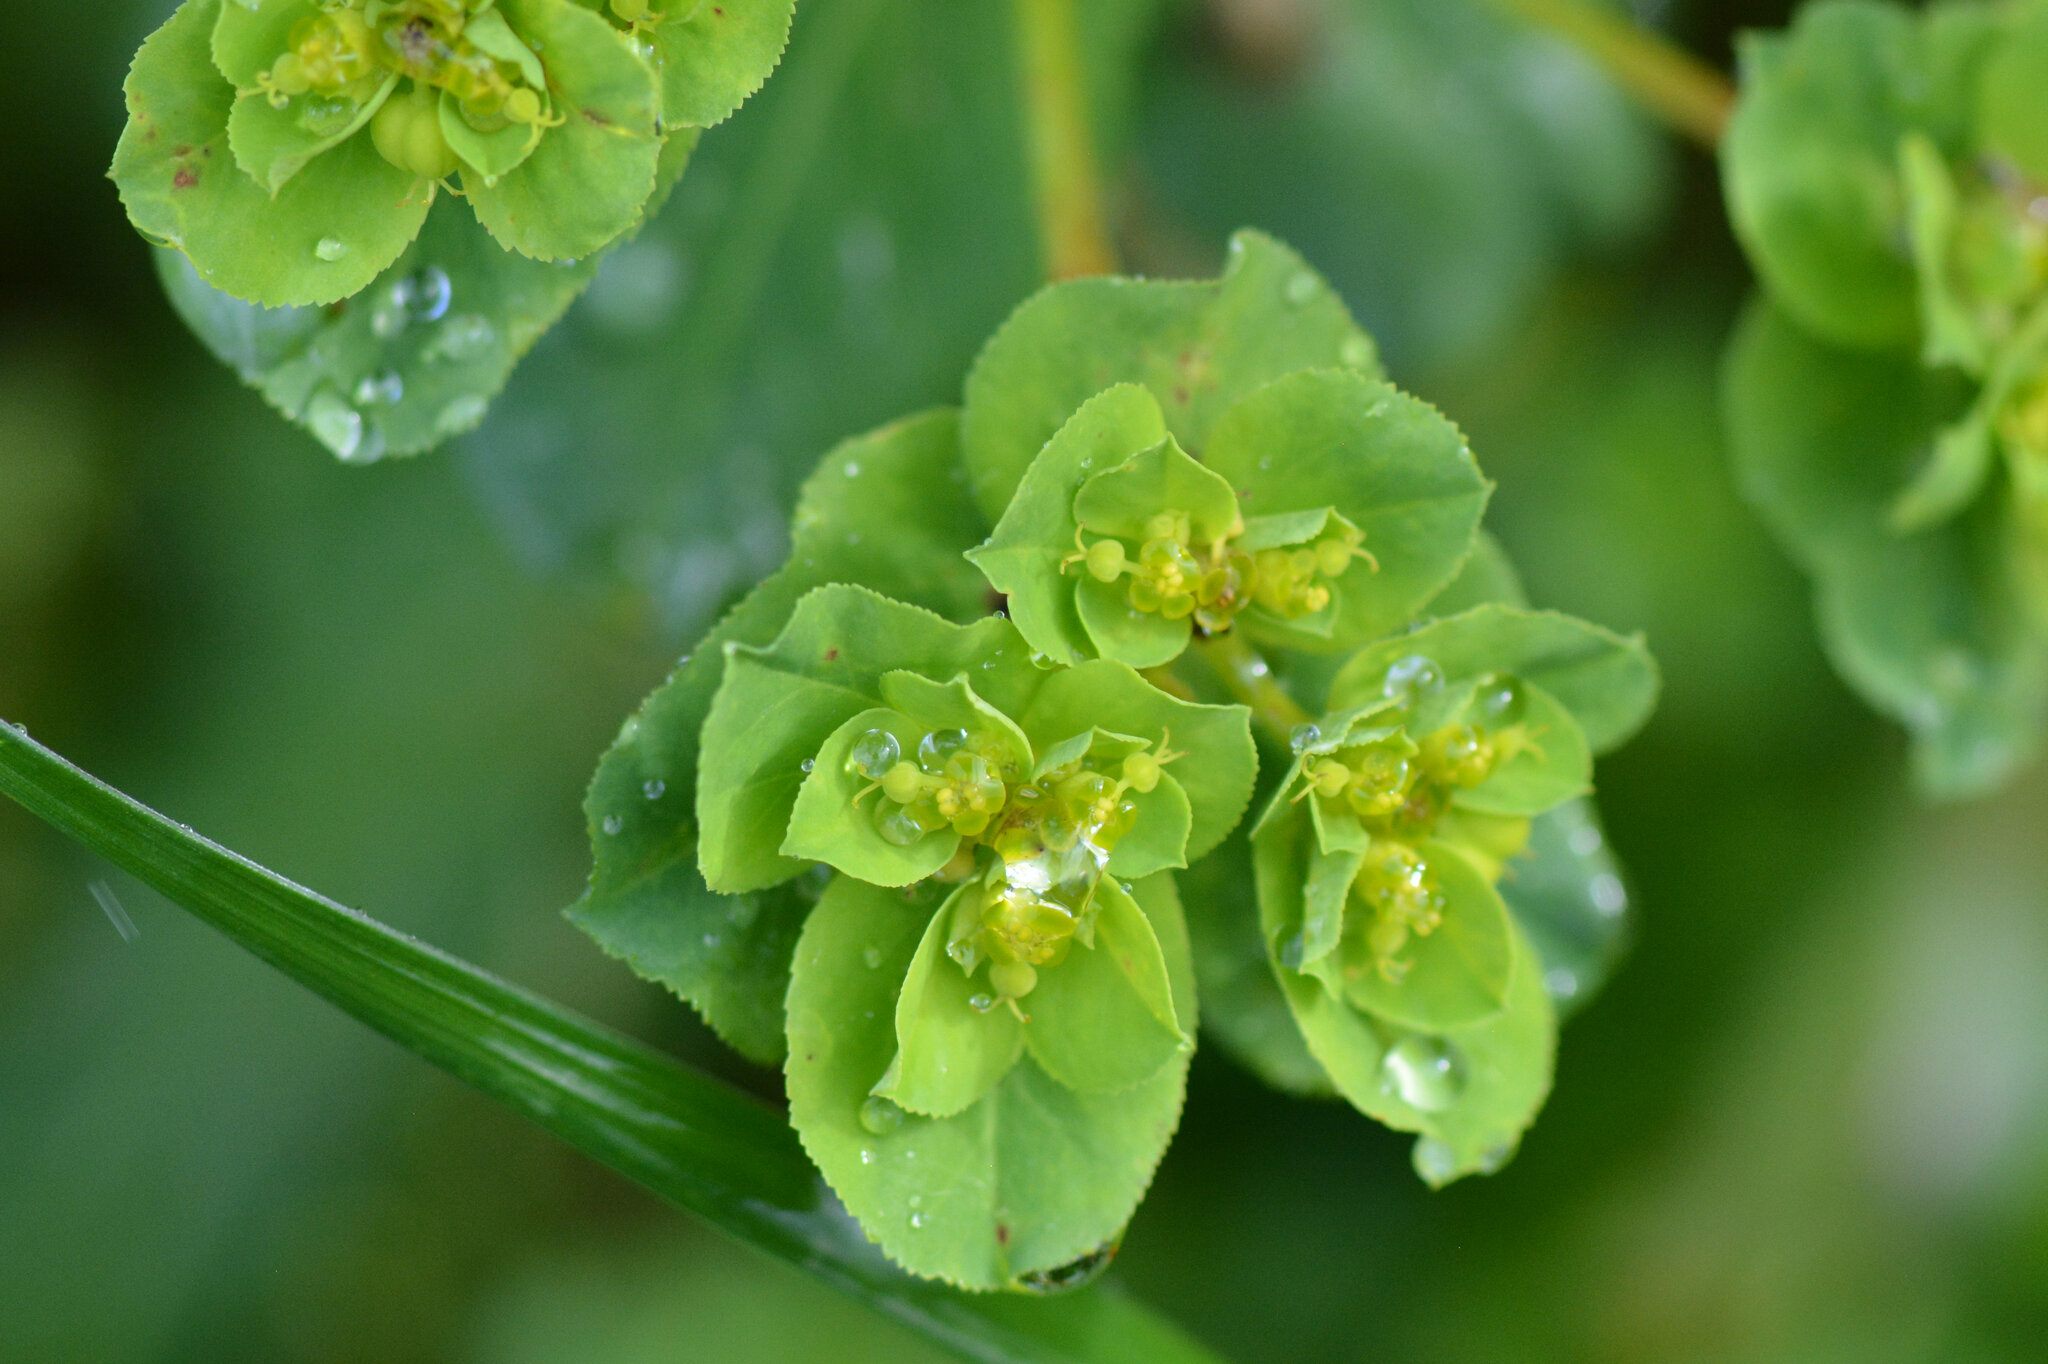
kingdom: Plantae
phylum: Tracheophyta
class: Magnoliopsida
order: Malpighiales
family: Euphorbiaceae
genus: Euphorbia
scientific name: Euphorbia helioscopia
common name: Sun spurge
